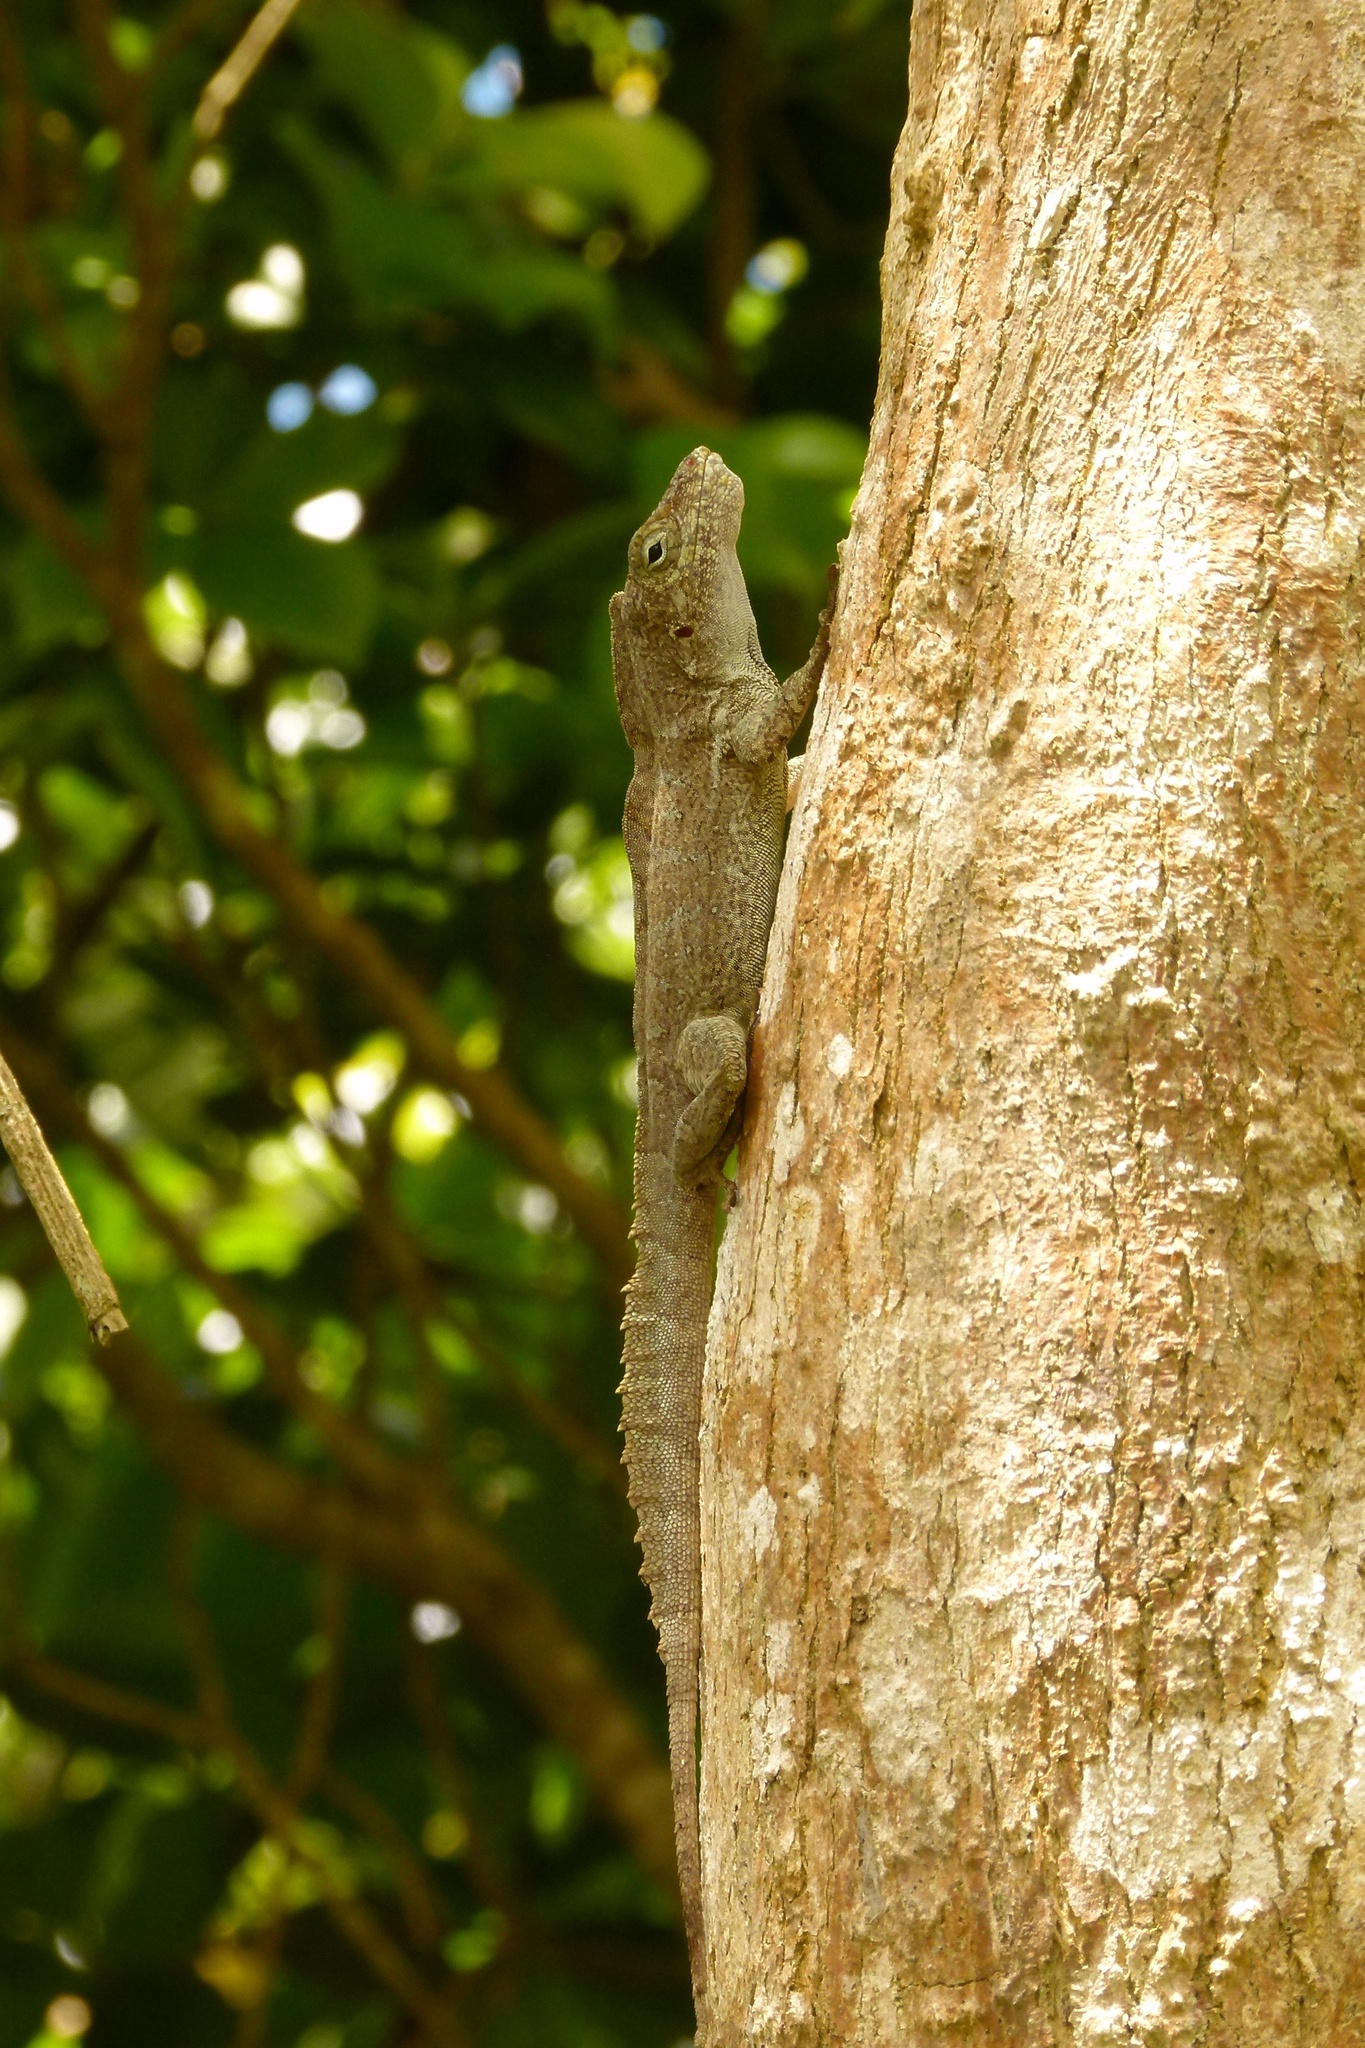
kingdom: Animalia
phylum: Chordata
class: Squamata
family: Dactyloidae
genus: Anolis
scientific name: Anolis cristatellus
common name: Crested anole
